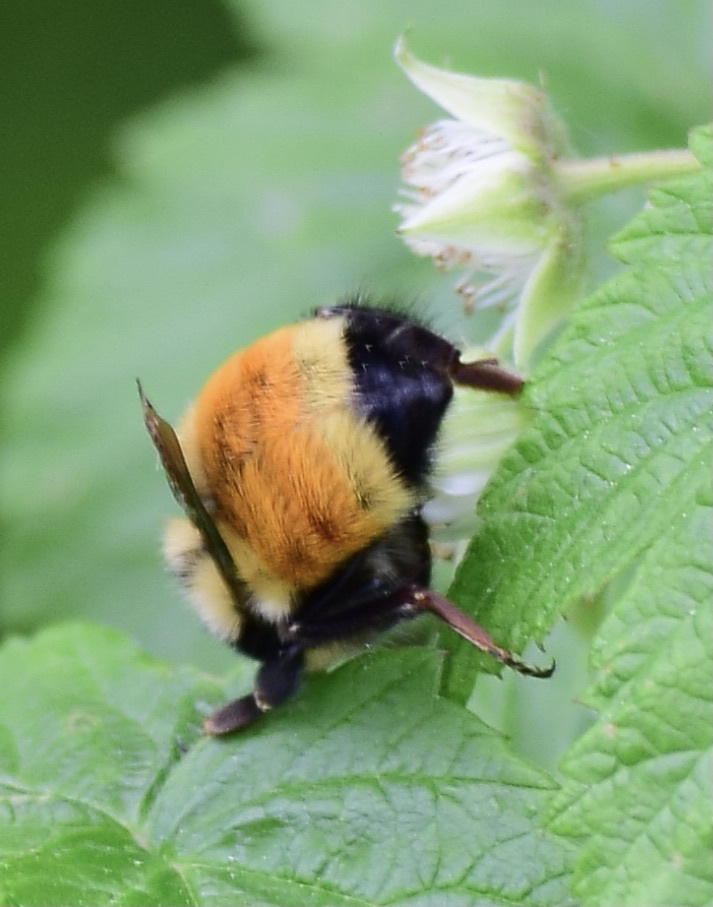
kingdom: Animalia
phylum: Arthropoda
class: Insecta
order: Hymenoptera
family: Apidae
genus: Bombus
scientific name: Bombus ternarius
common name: Tri-colored bumble bee
